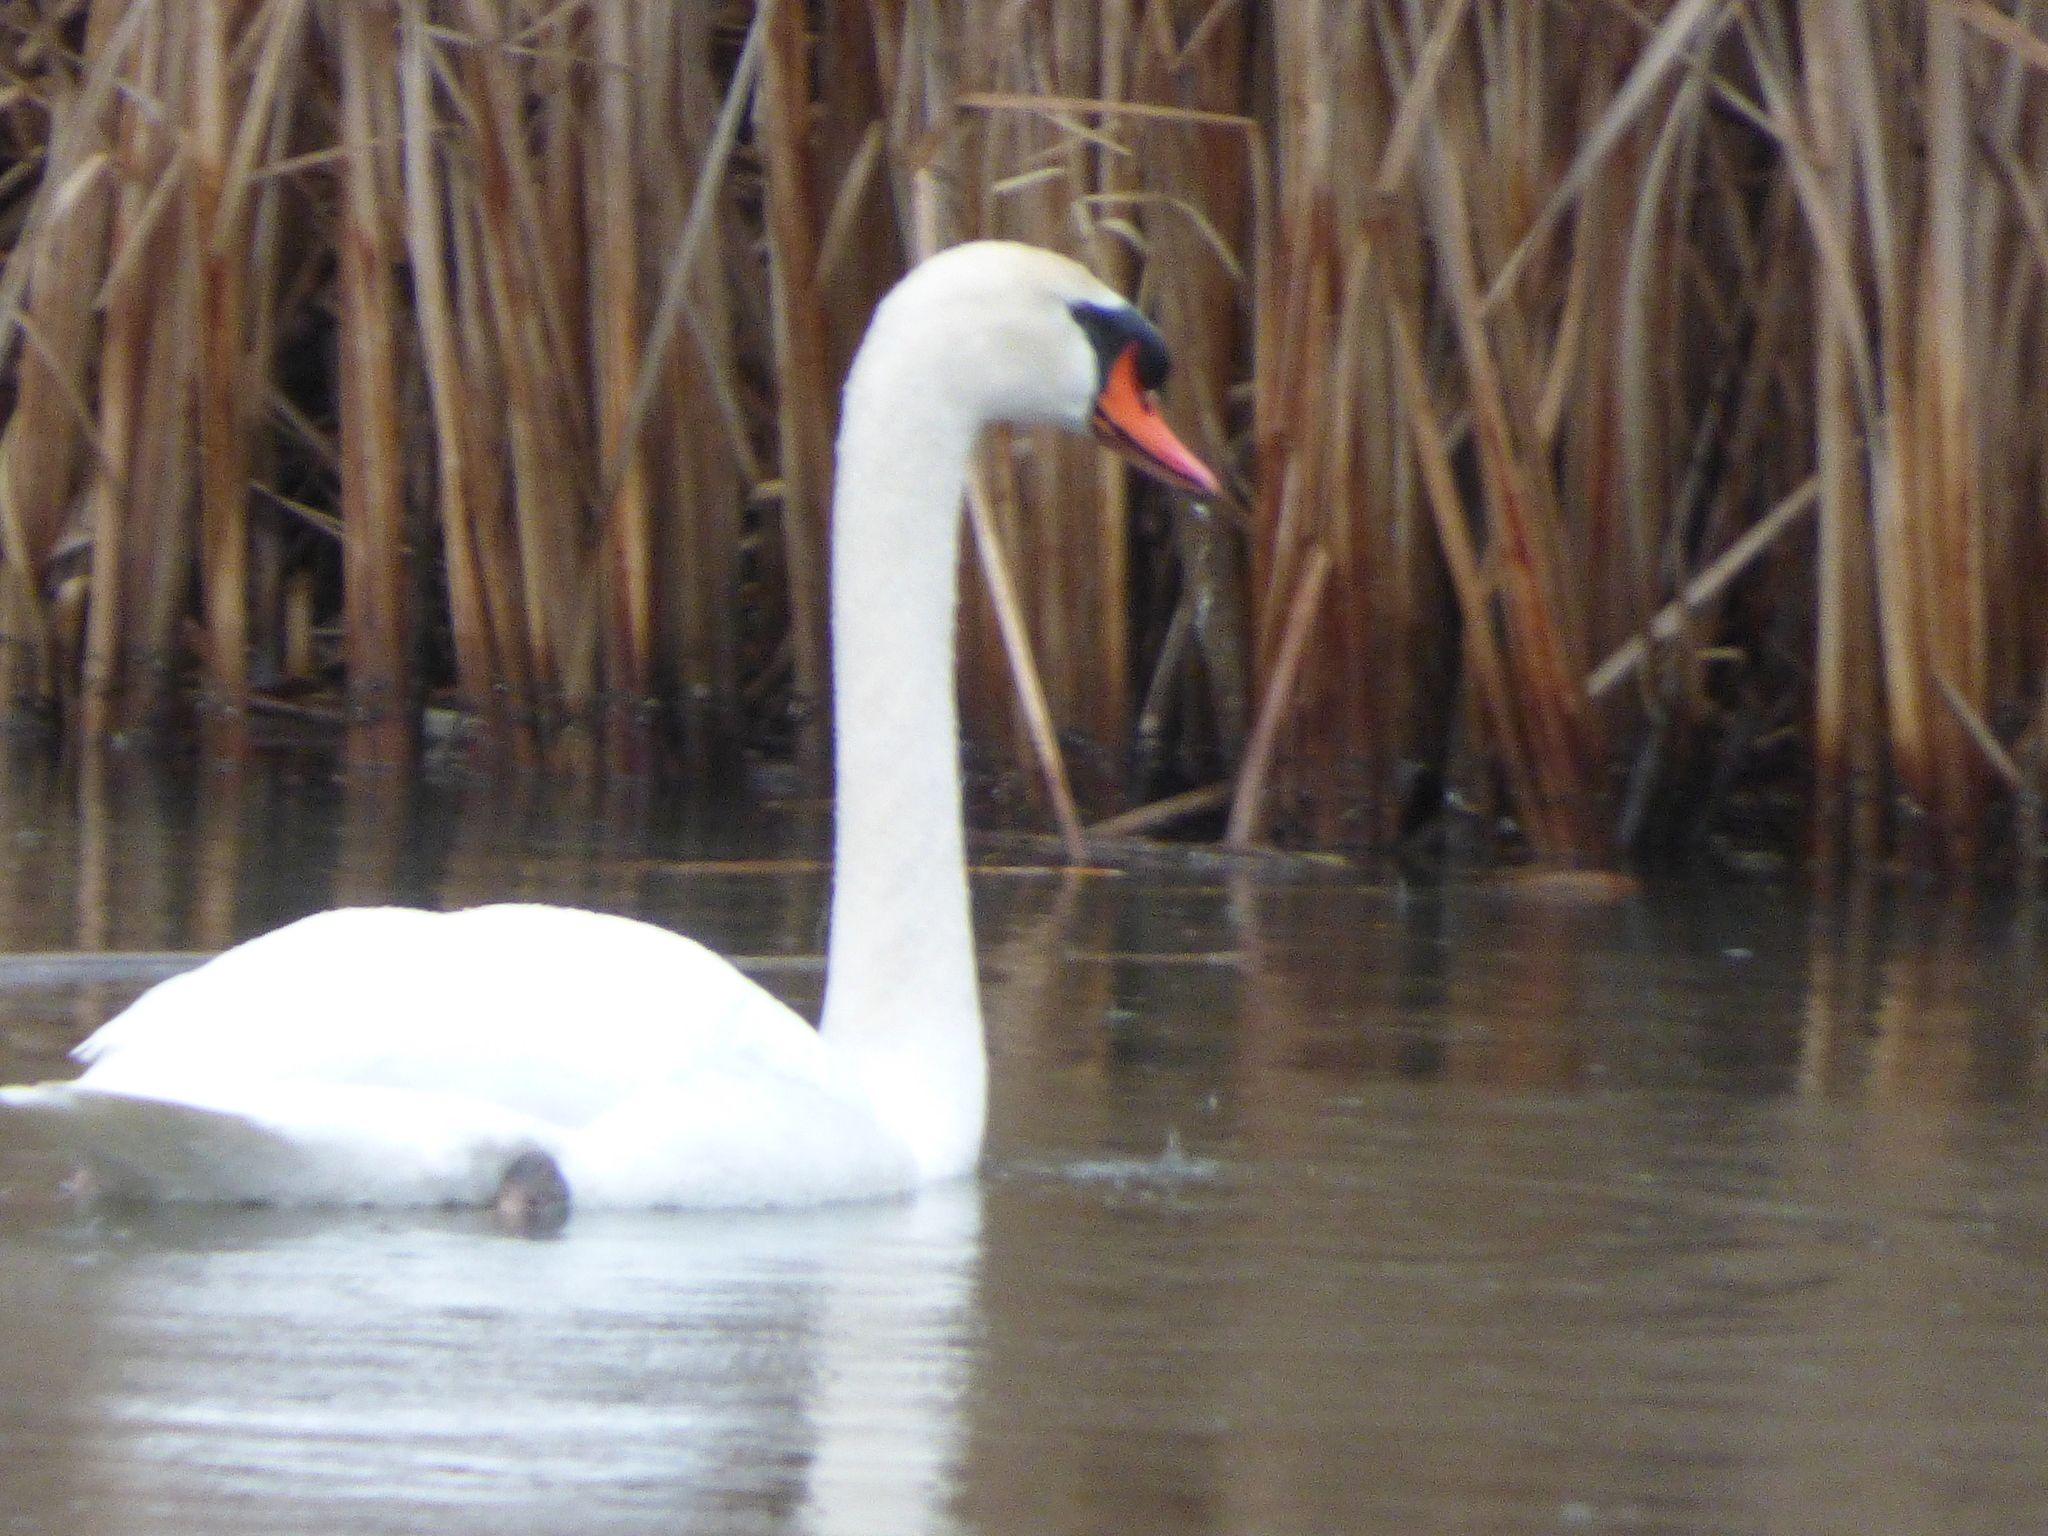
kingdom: Animalia
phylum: Chordata
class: Aves
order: Anseriformes
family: Anatidae
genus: Cygnus
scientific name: Cygnus olor
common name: Mute swan
